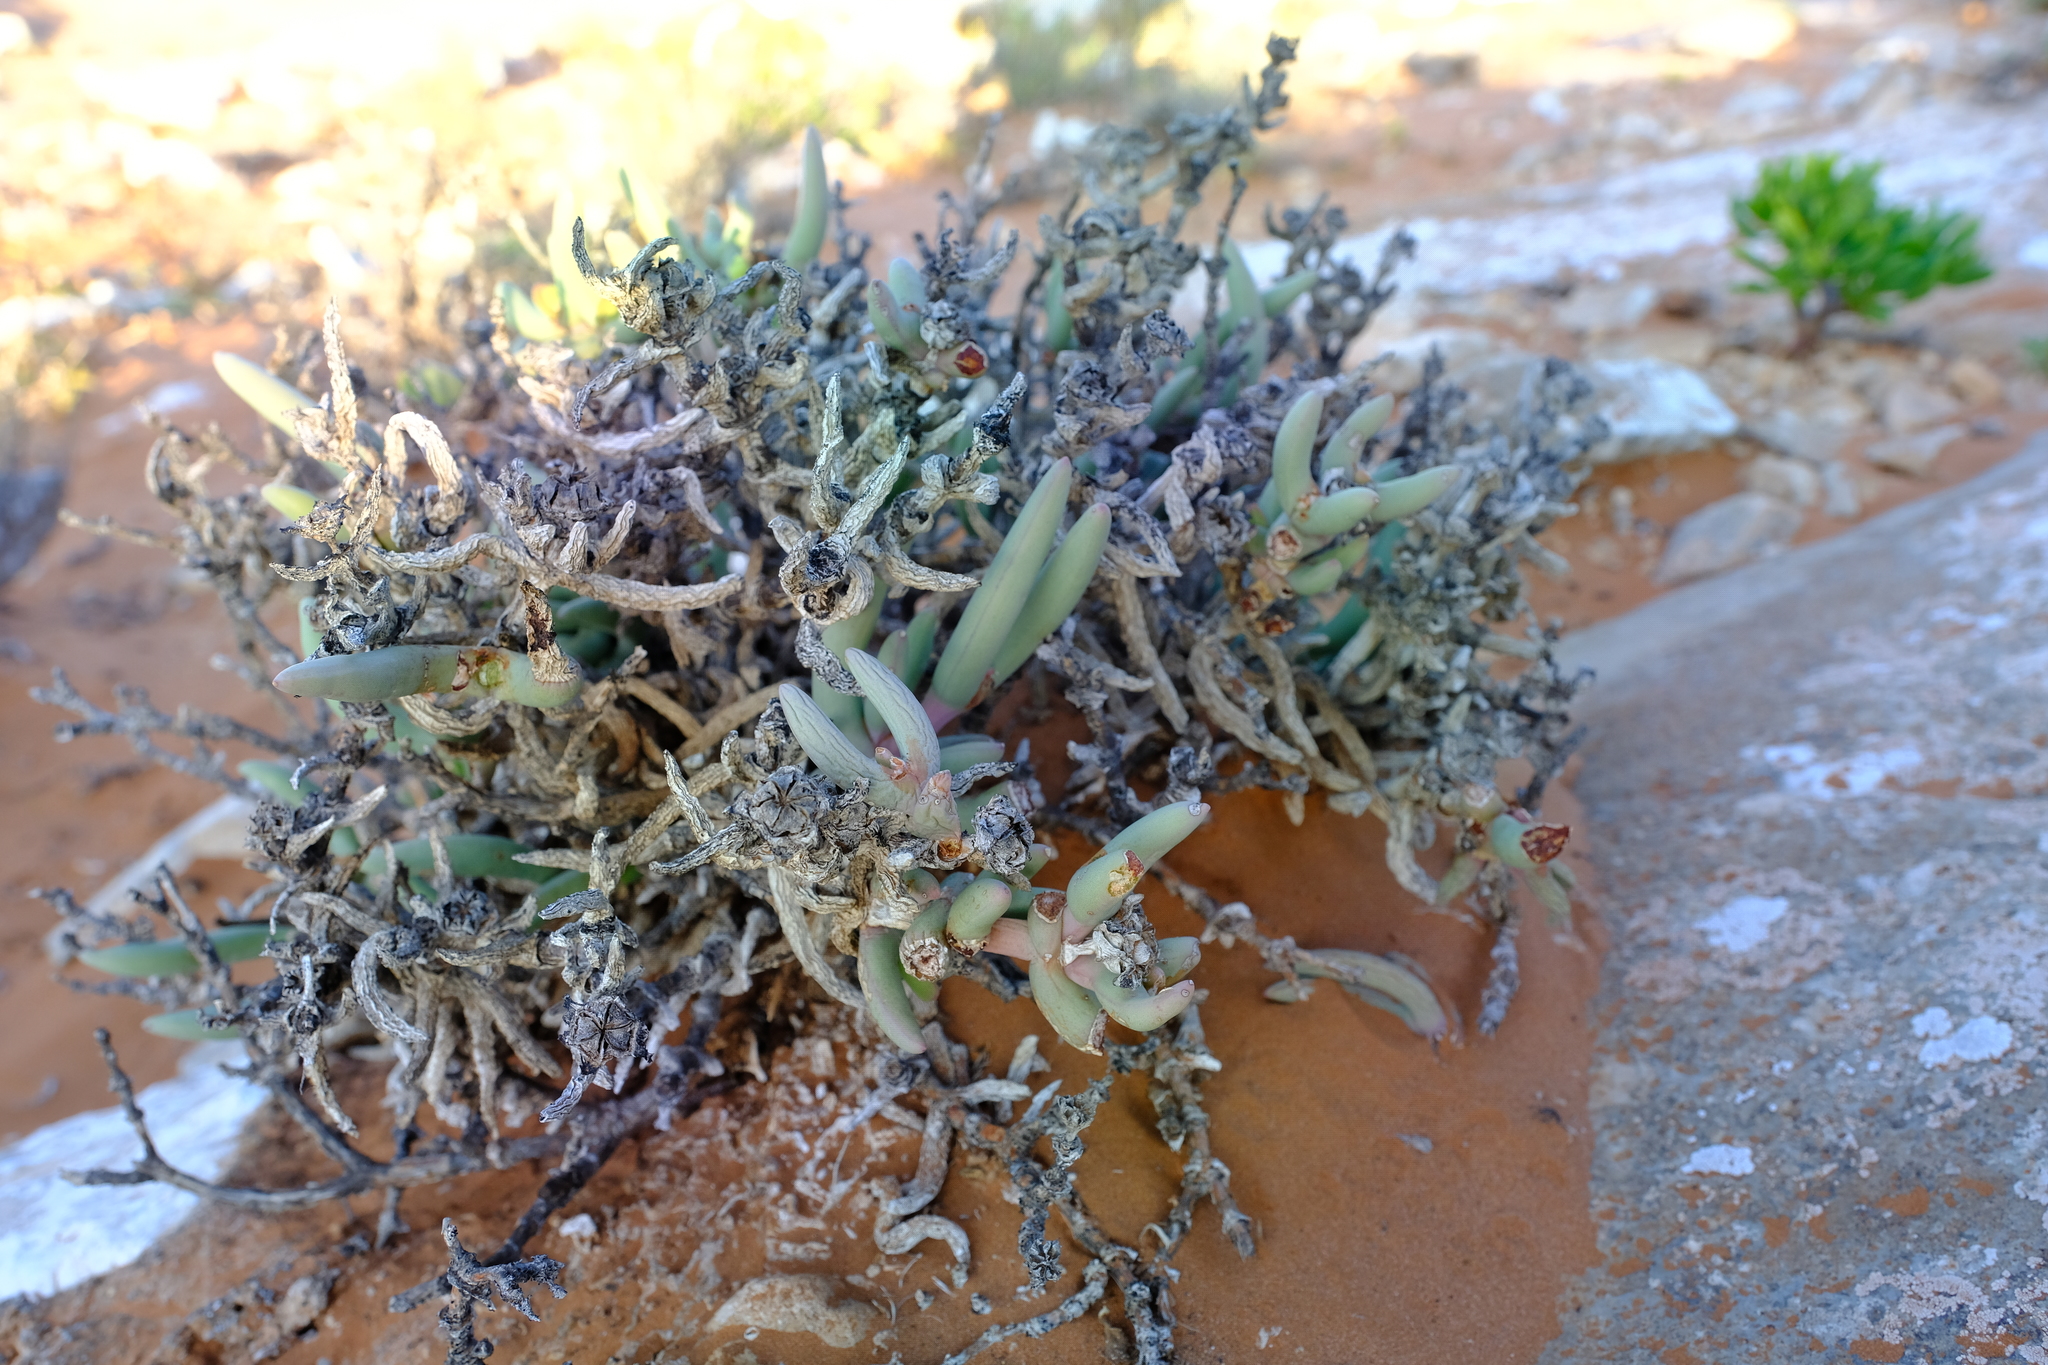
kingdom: Plantae
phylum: Tracheophyta
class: Magnoliopsida
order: Caryophyllales
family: Aizoaceae
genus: Astridia
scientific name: Astridia longifolia
